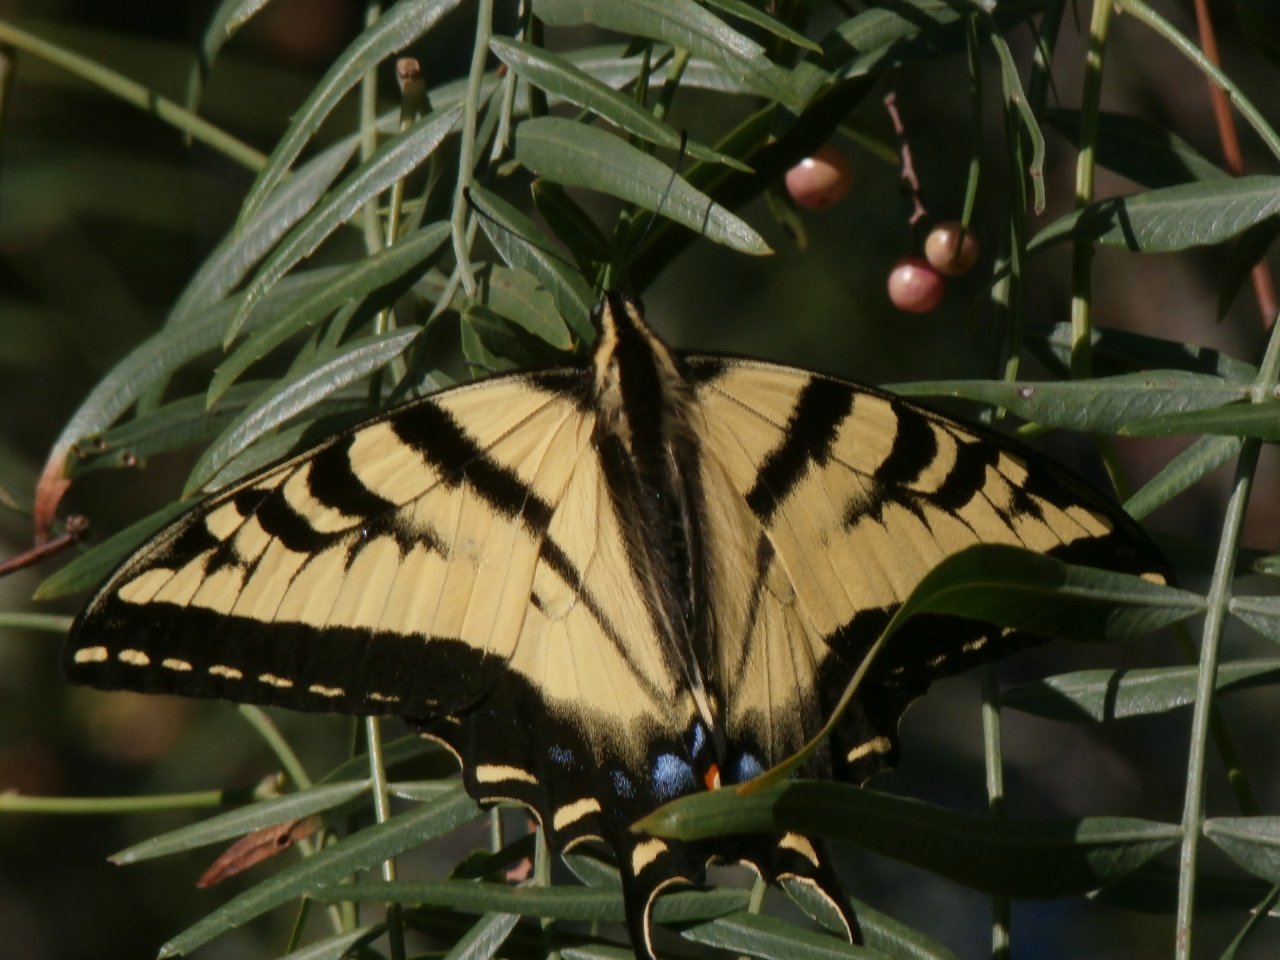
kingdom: Animalia
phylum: Arthropoda
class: Insecta
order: Lepidoptera
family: Papilionidae
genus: Papilio
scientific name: Papilio rutulus
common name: Western tiger swallowtail
